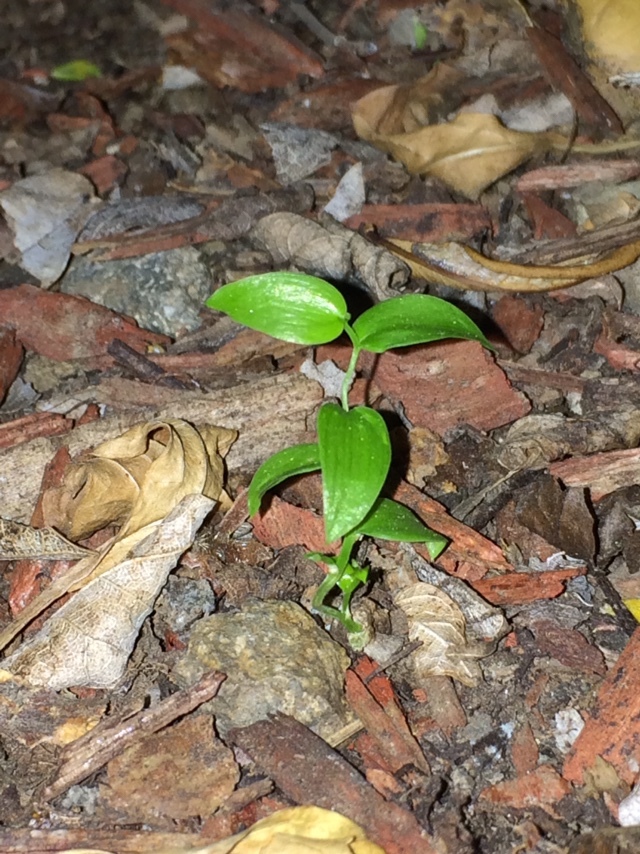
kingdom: Plantae
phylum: Tracheophyta
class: Liliopsida
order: Asparagales
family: Asparagaceae
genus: Asparagus
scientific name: Asparagus asparagoides
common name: African asparagus fern
